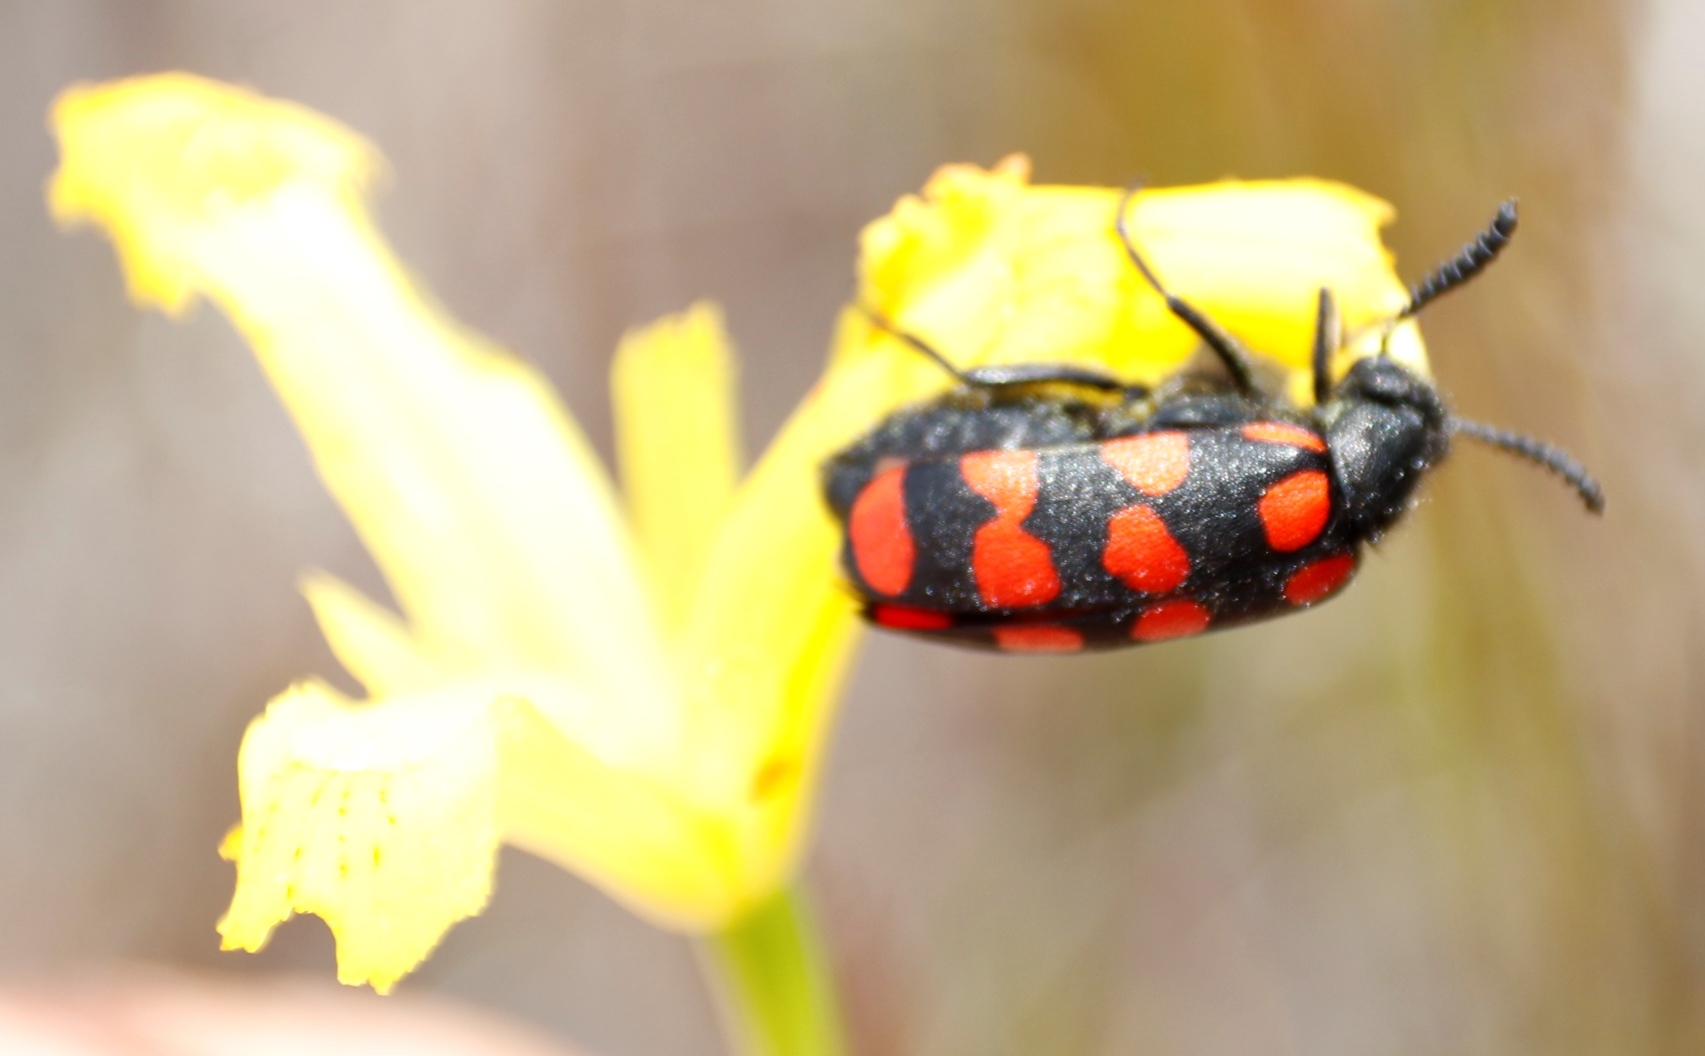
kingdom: Animalia
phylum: Arthropoda
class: Insecta
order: Coleoptera
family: Meloidae
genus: Ceroctis
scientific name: Ceroctis gyllenhalli
